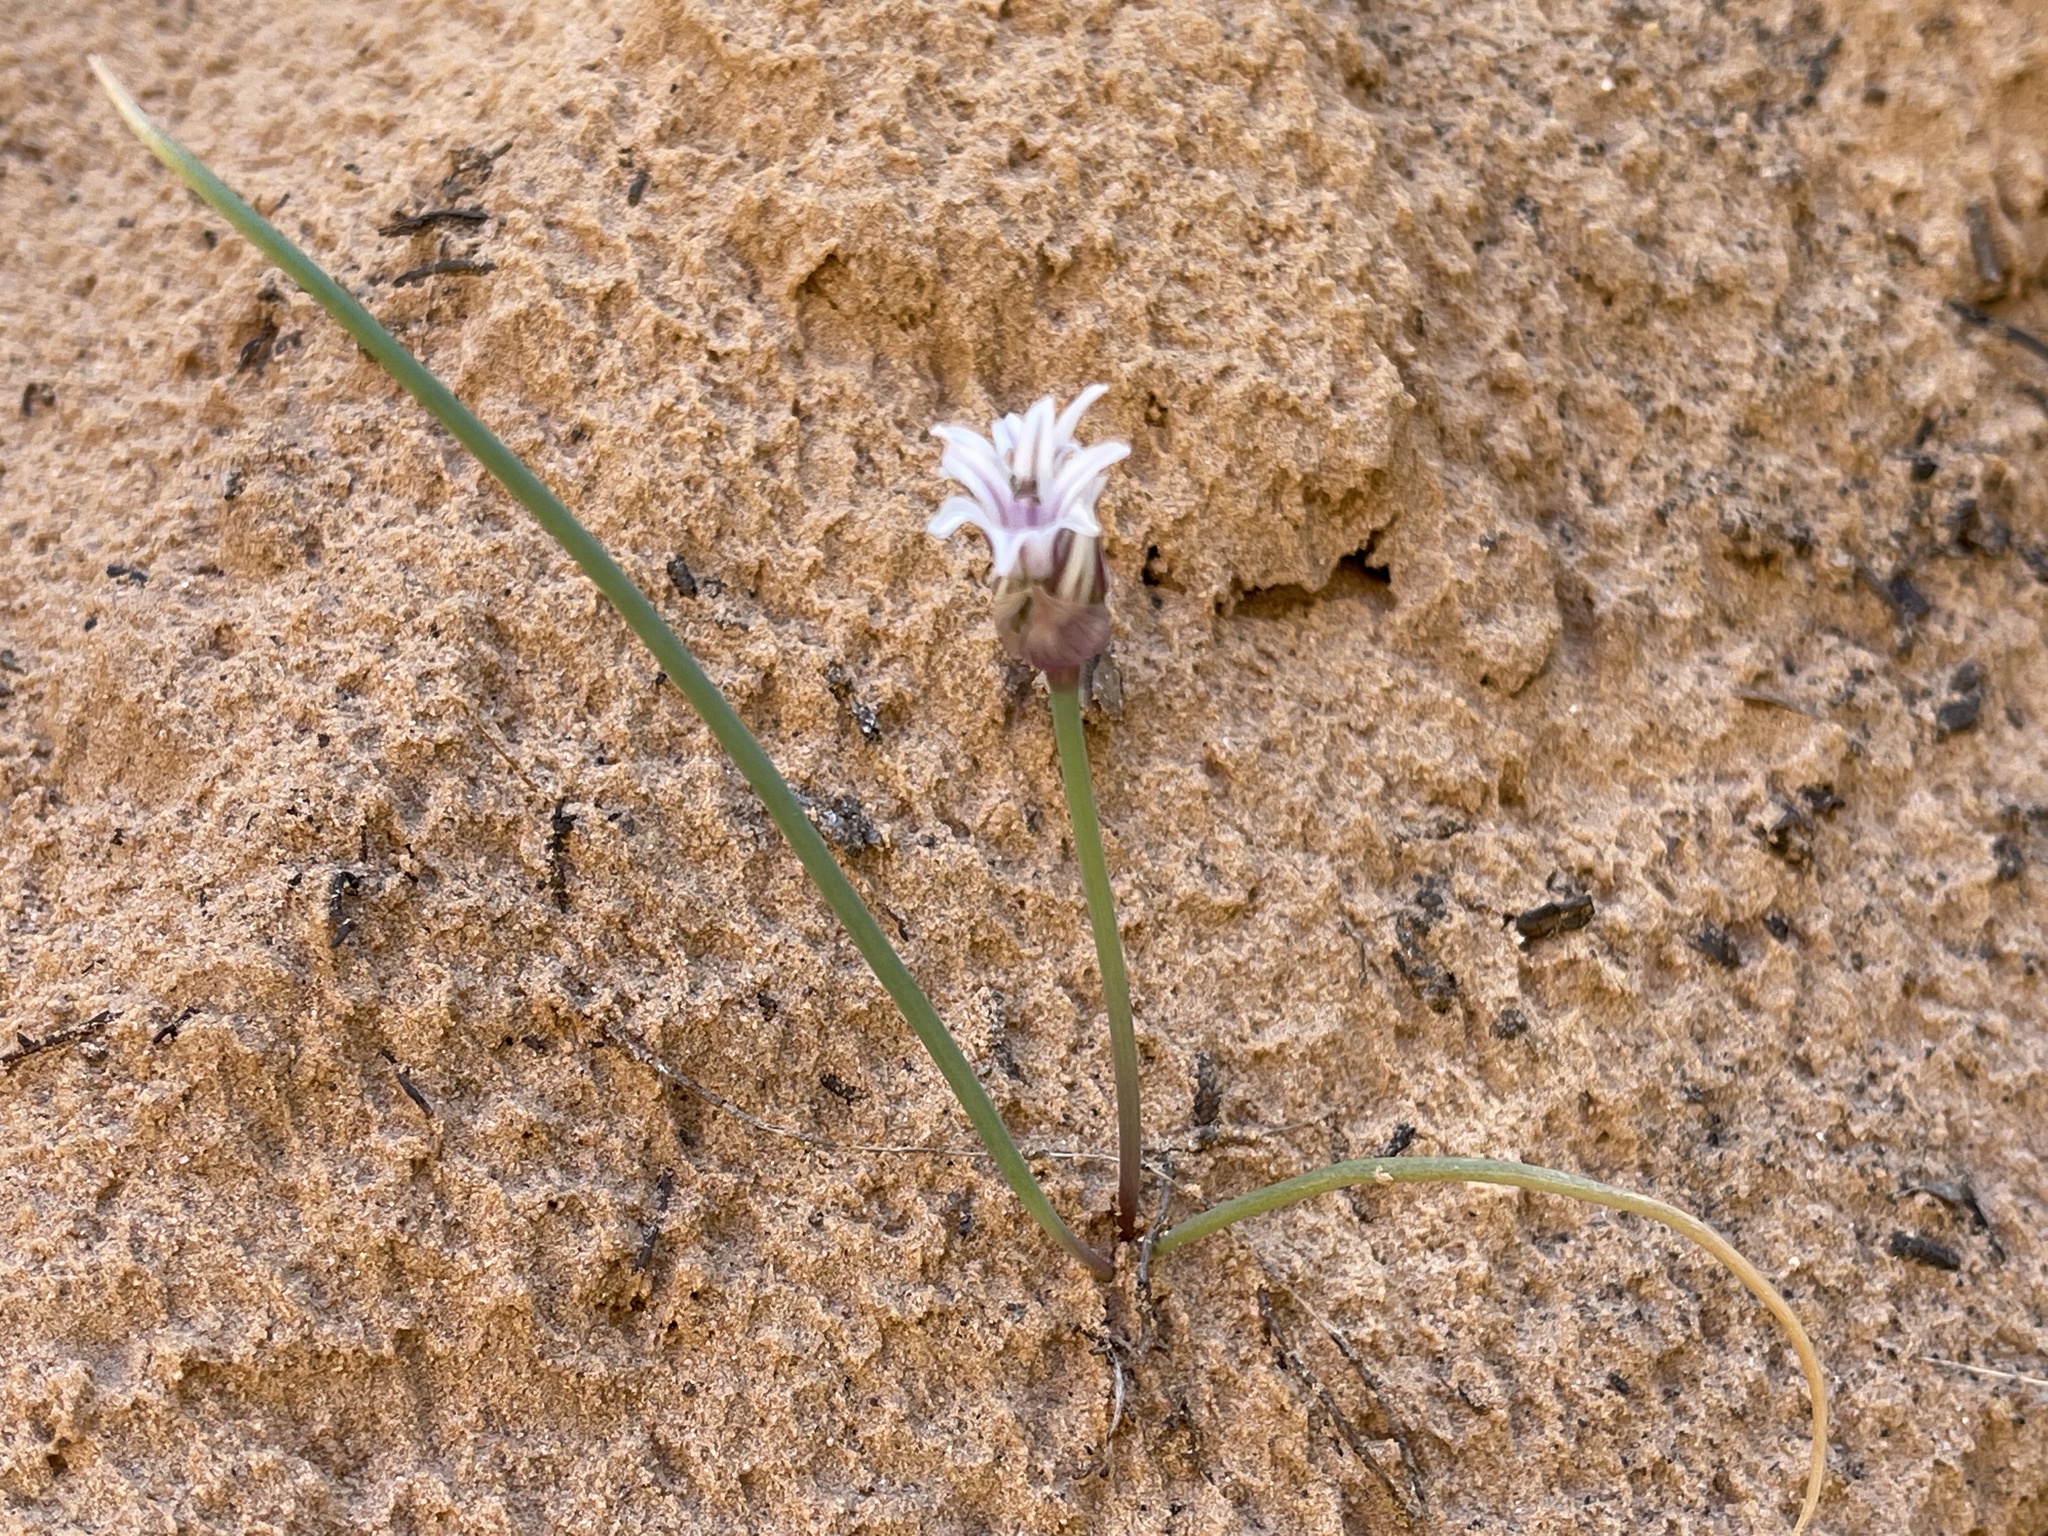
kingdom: Plantae
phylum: Tracheophyta
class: Liliopsida
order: Asparagales
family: Amaryllidaceae
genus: Allium
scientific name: Allium macropetalum
